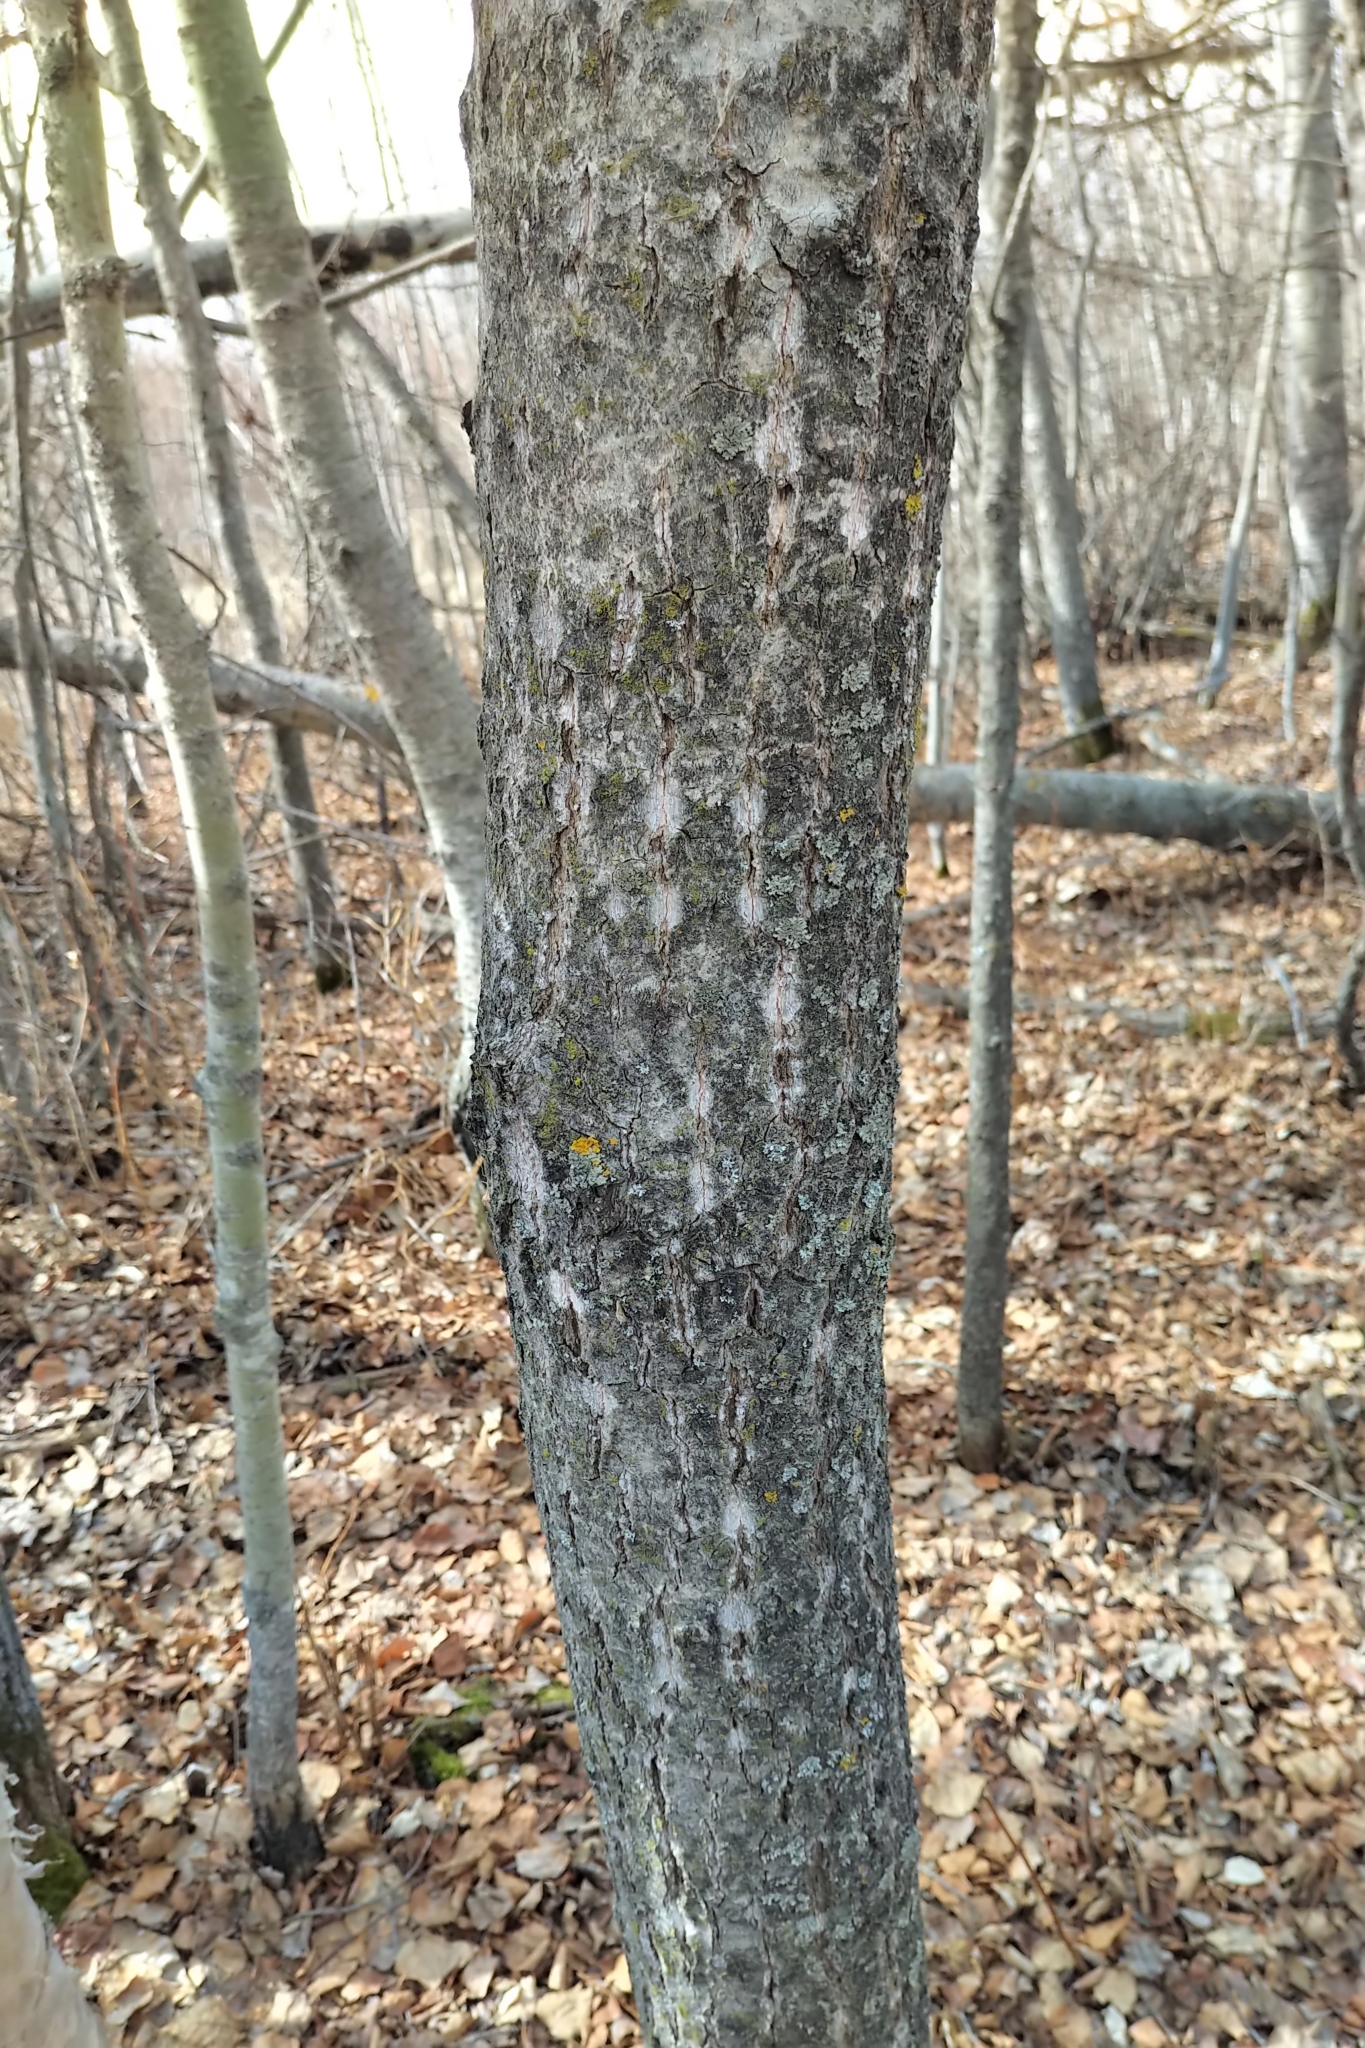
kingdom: Plantae
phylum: Tracheophyta
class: Magnoliopsida
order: Malpighiales
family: Salicaceae
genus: Populus
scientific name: Populus balsamifera
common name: Balsam poplar
